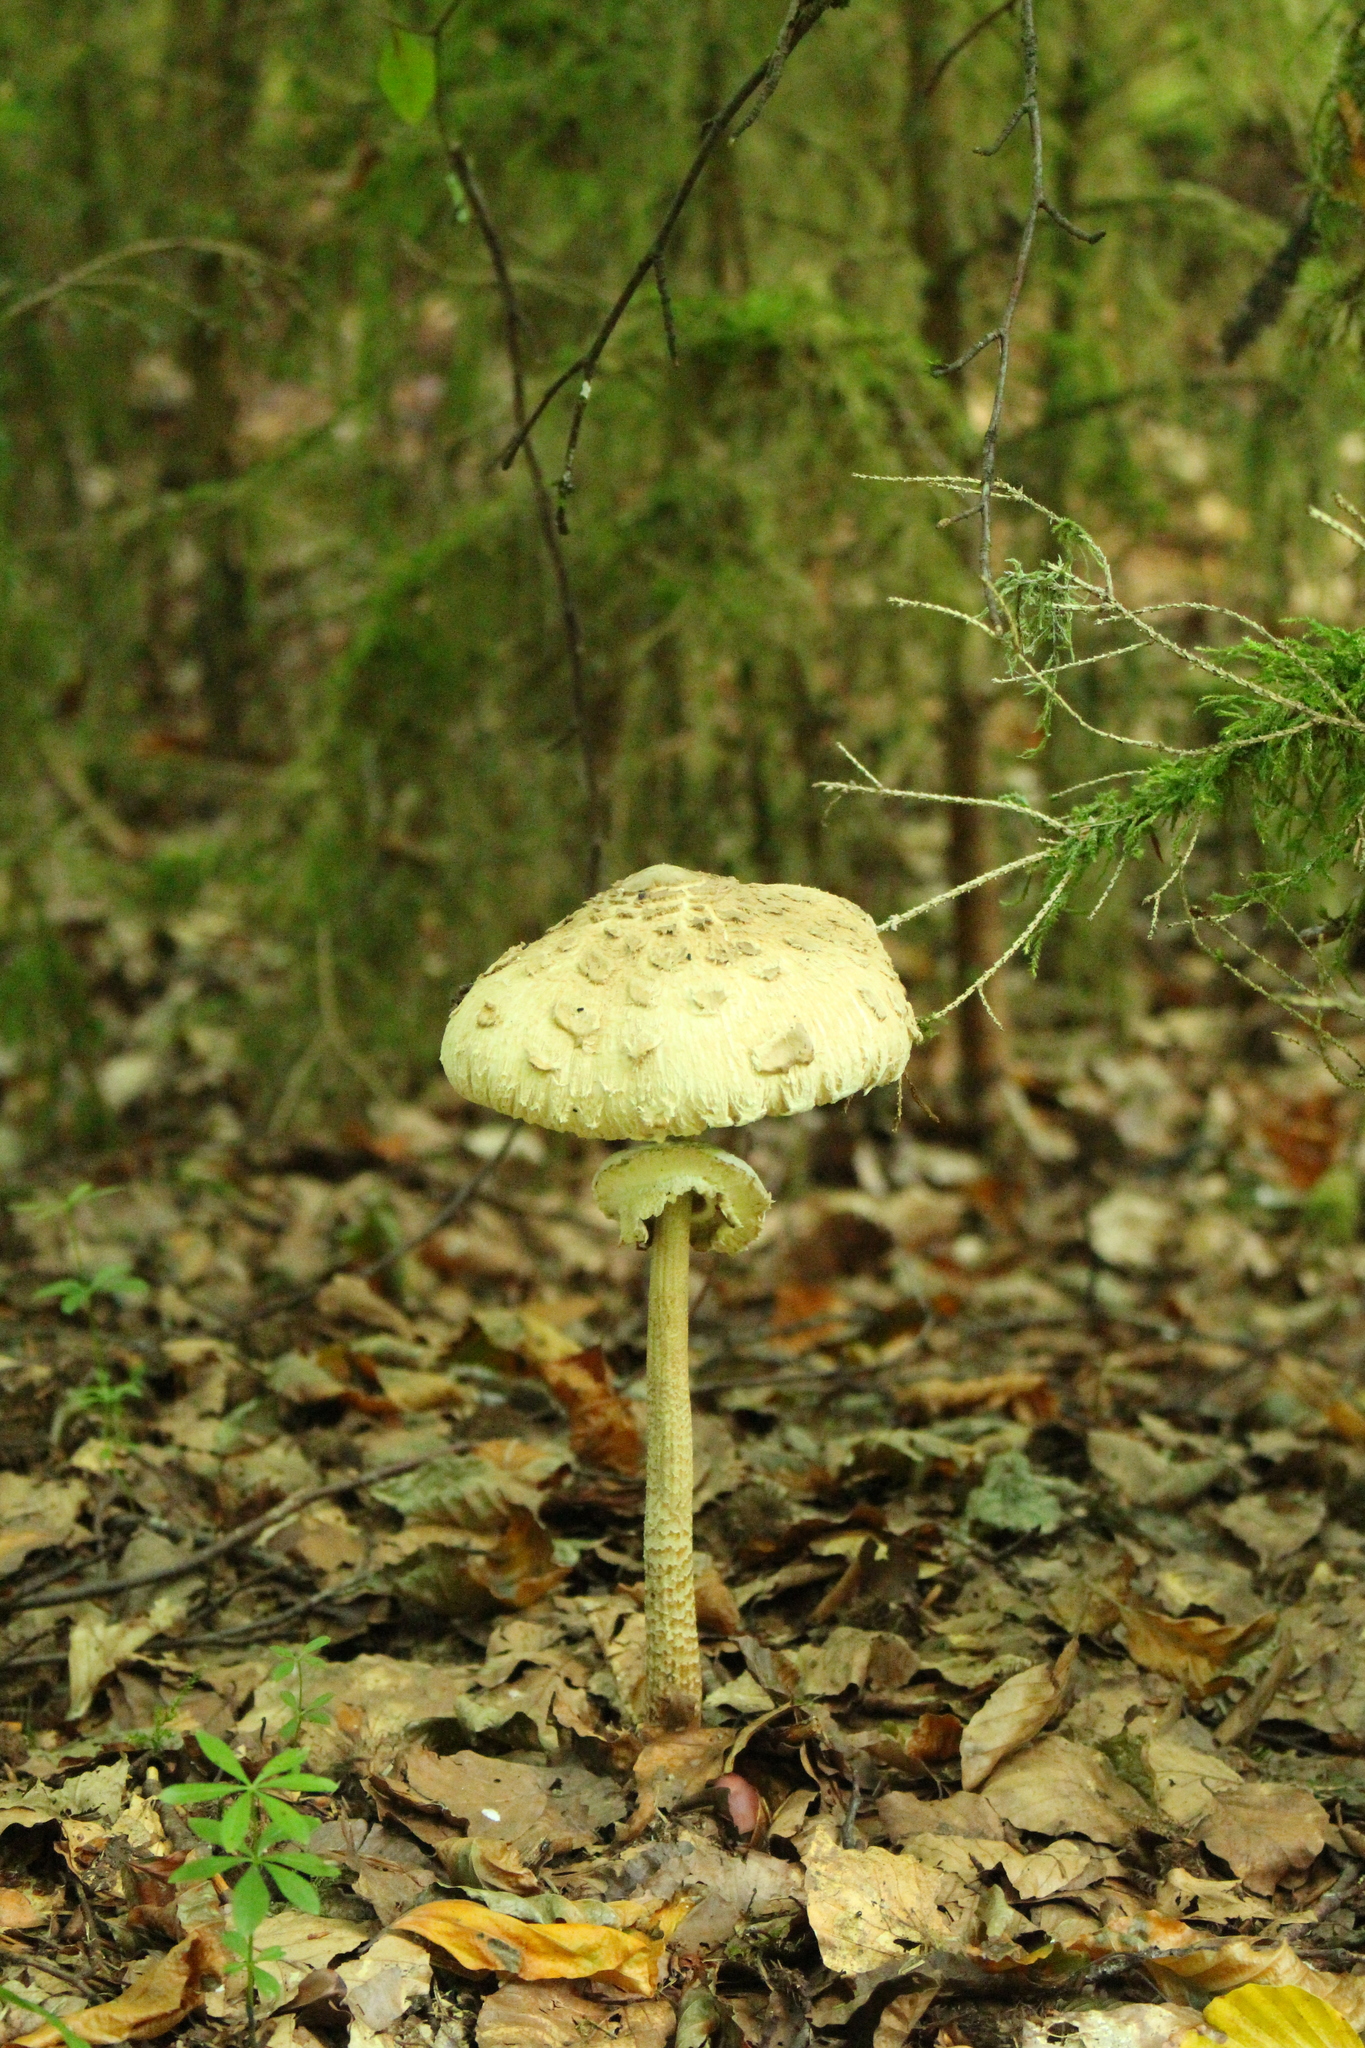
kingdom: Fungi
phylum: Basidiomycota
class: Agaricomycetes
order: Agaricales
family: Agaricaceae
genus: Macrolepiota
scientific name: Macrolepiota procera
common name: Parasol
